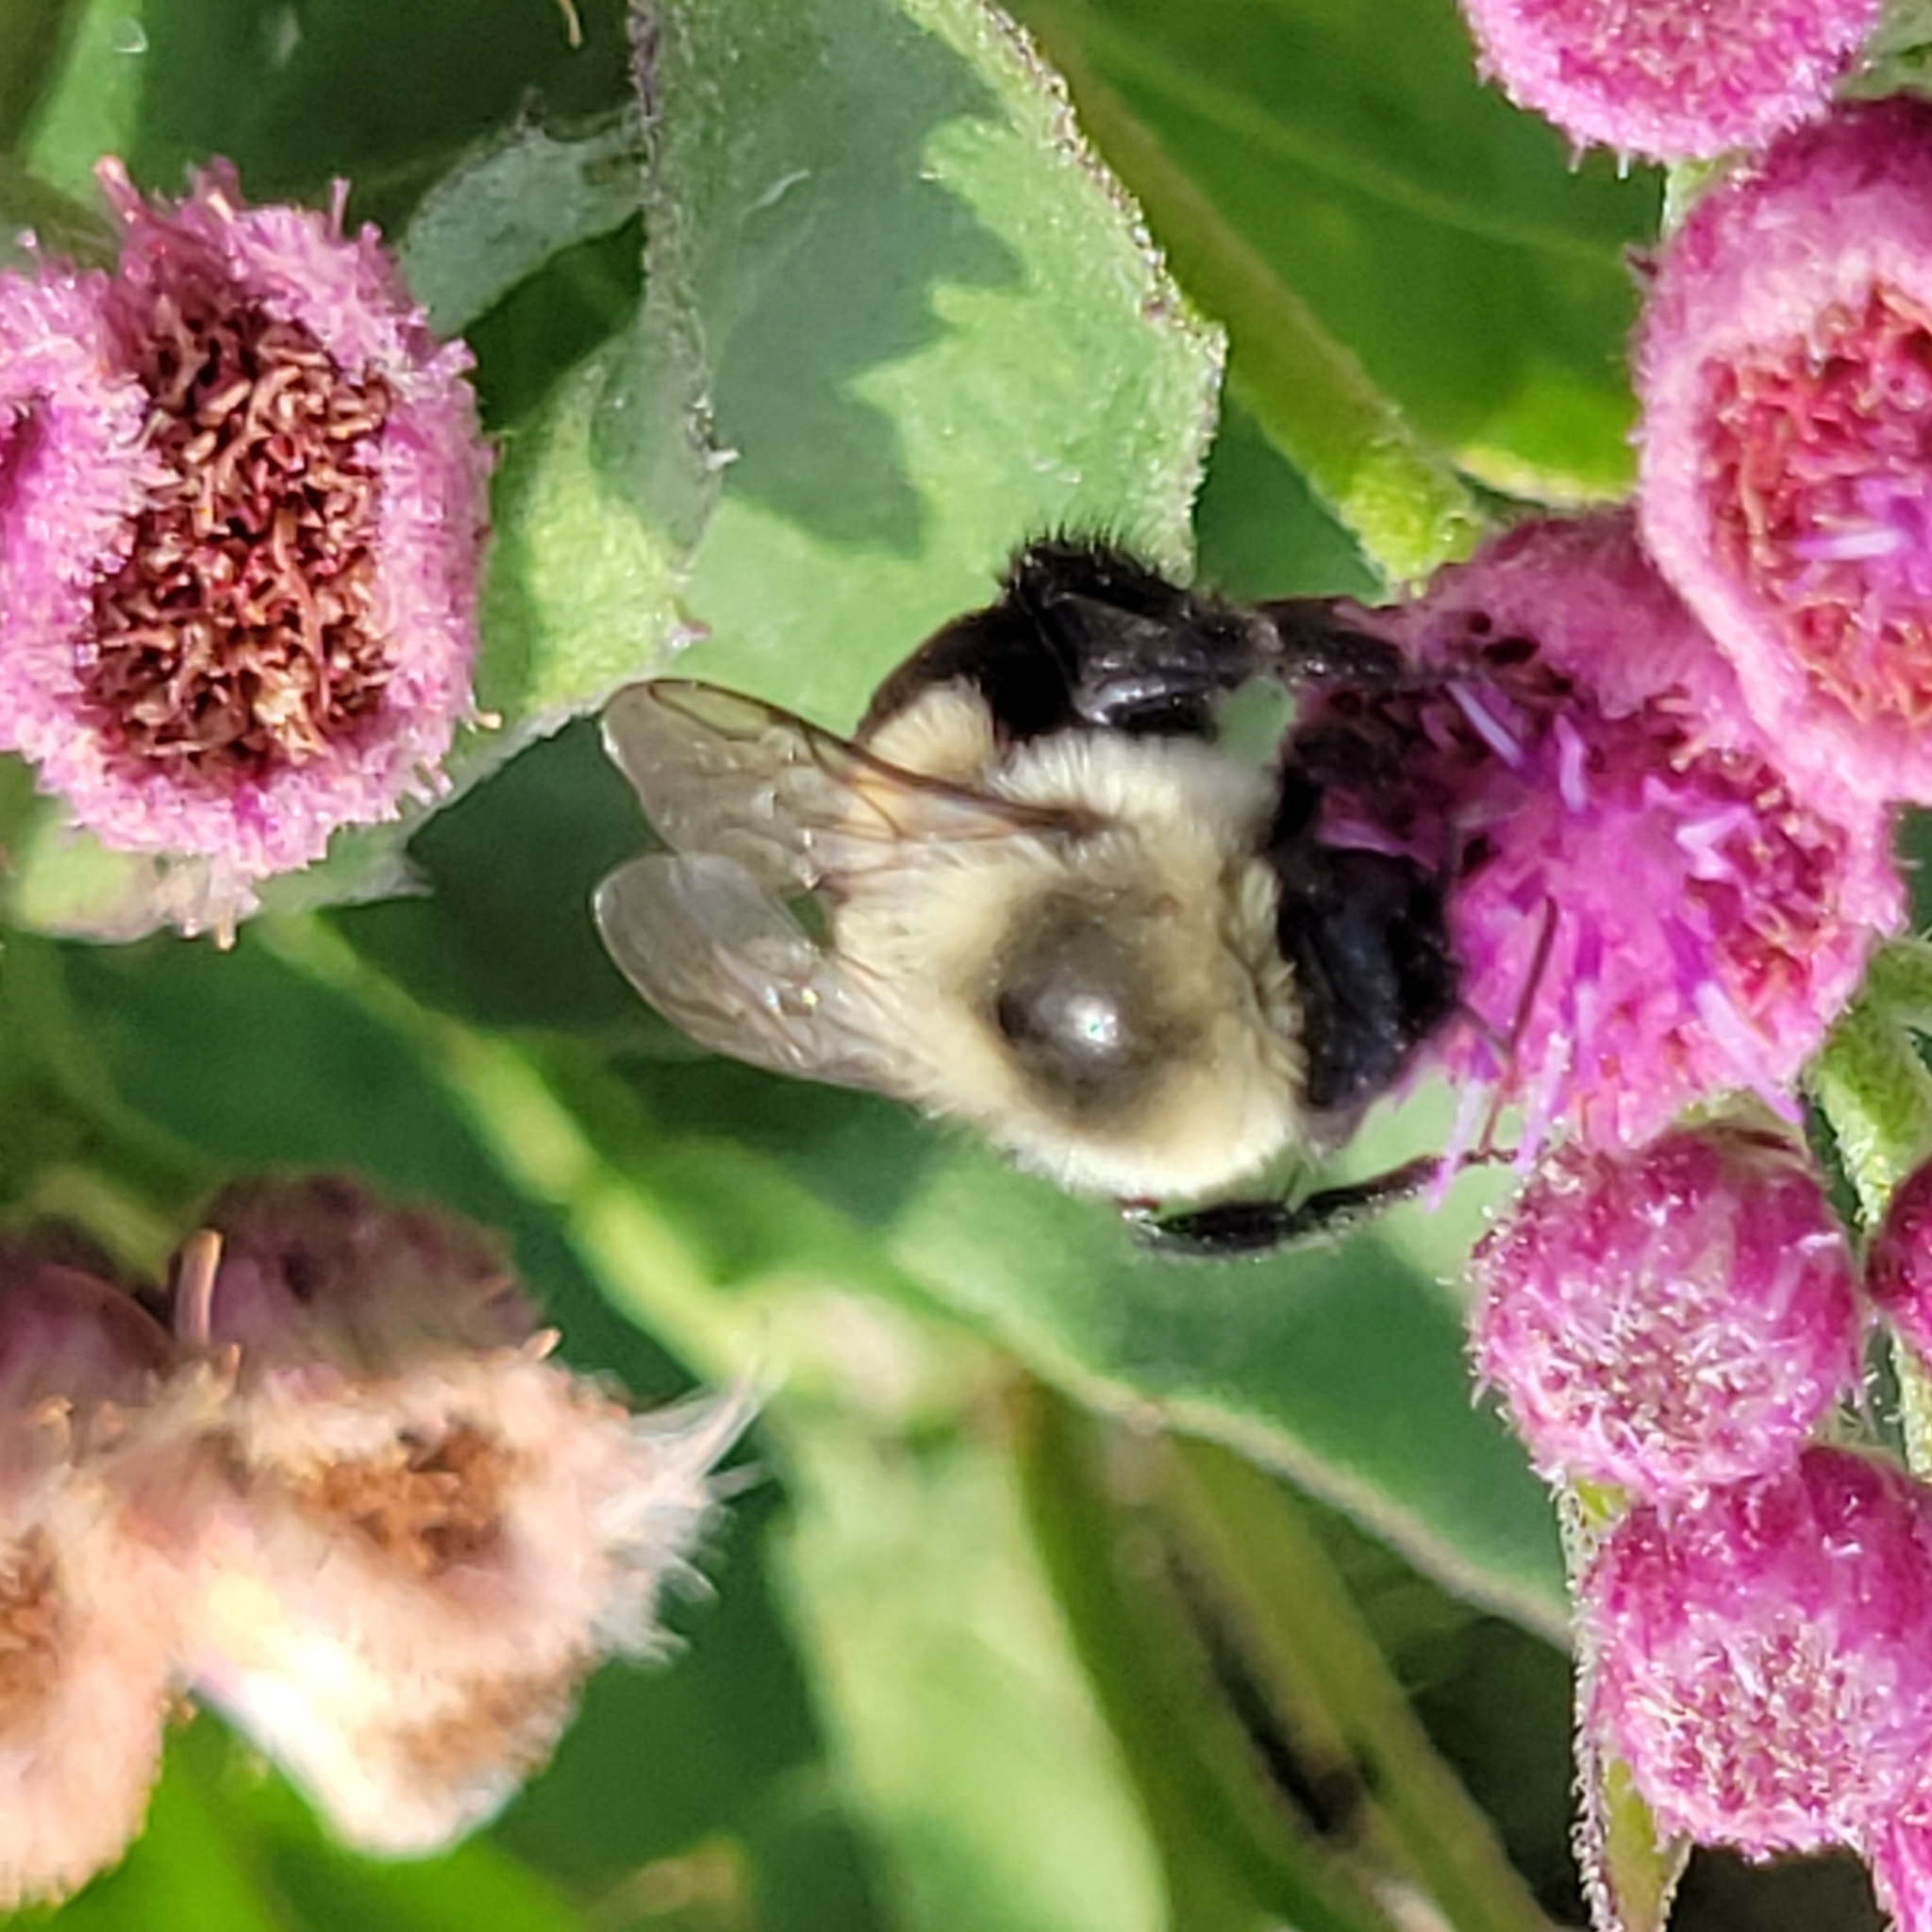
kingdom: Animalia
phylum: Arthropoda
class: Insecta
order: Hymenoptera
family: Apidae
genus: Bombus
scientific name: Bombus impatiens
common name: Common eastern bumble bee
